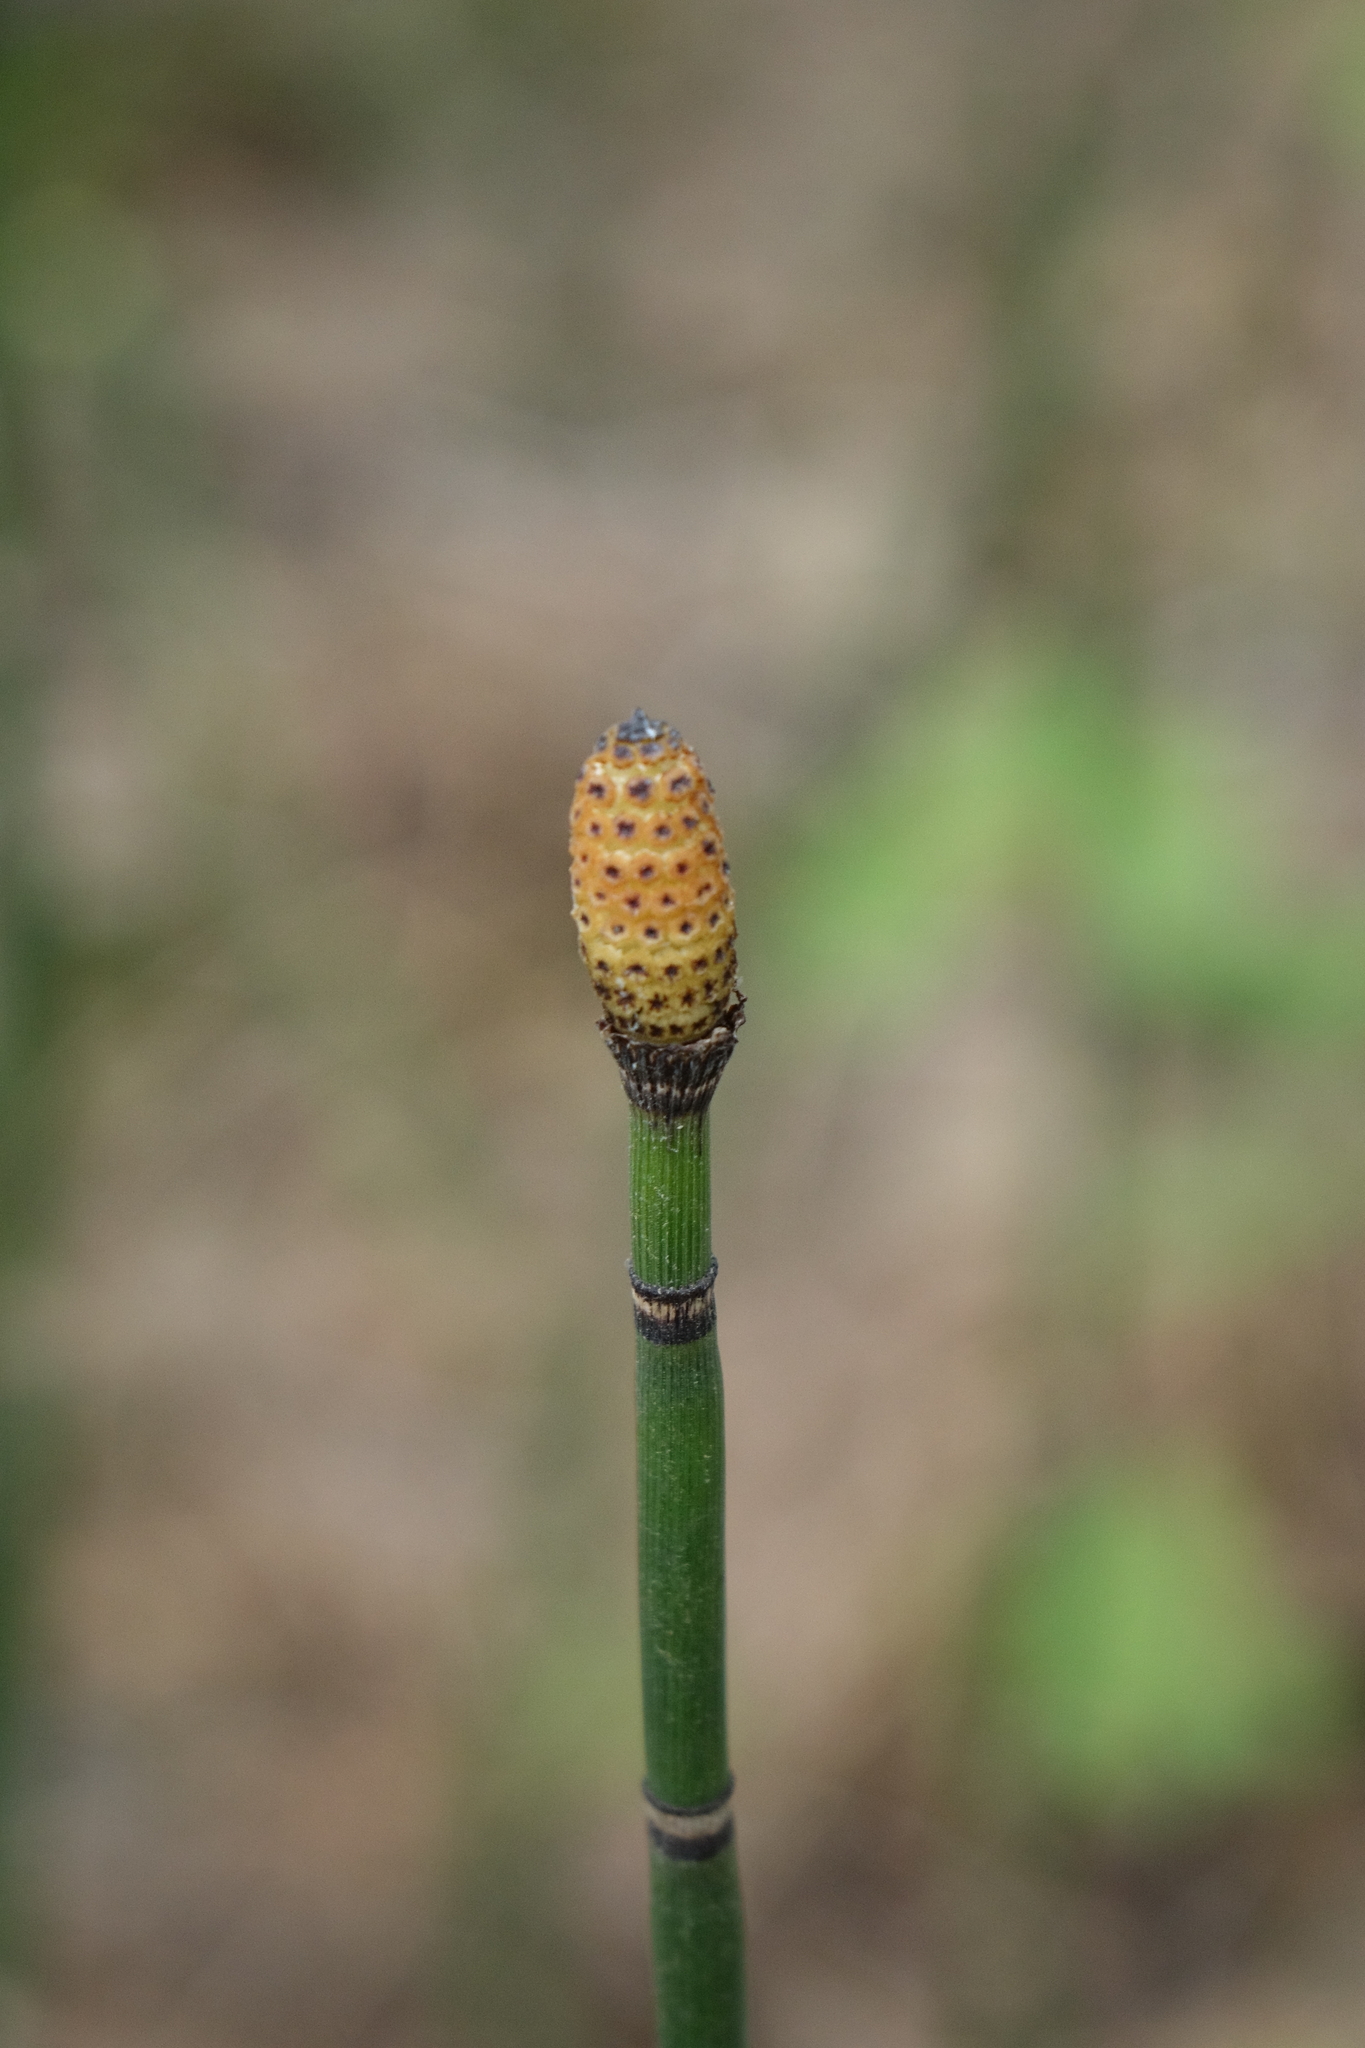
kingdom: Plantae
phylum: Tracheophyta
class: Polypodiopsida
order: Equisetales
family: Equisetaceae
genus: Equisetum
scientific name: Equisetum hyemale
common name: Rough horsetail
